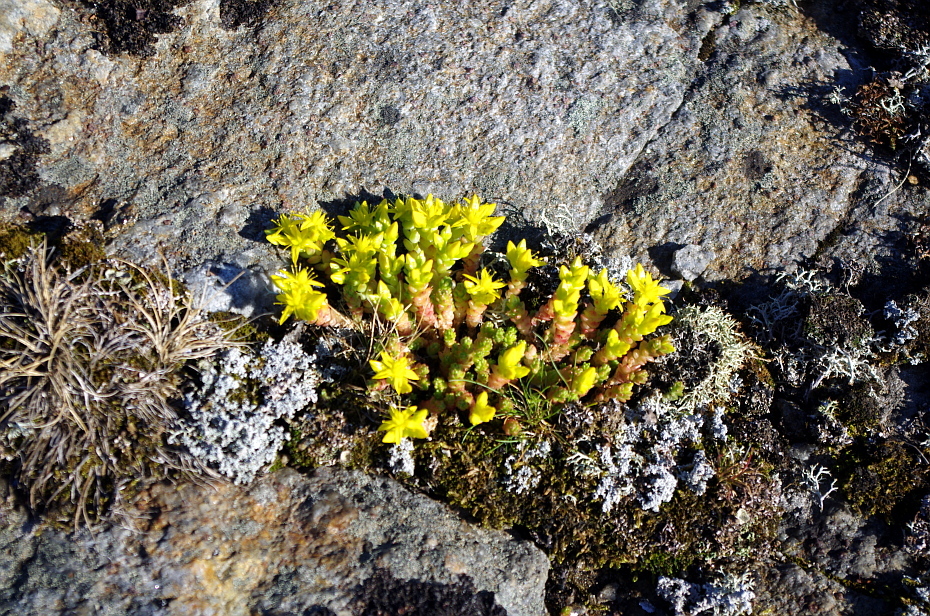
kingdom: Plantae
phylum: Tracheophyta
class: Magnoliopsida
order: Saxifragales
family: Crassulaceae
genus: Sedum
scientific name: Sedum acre
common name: Biting stonecrop
